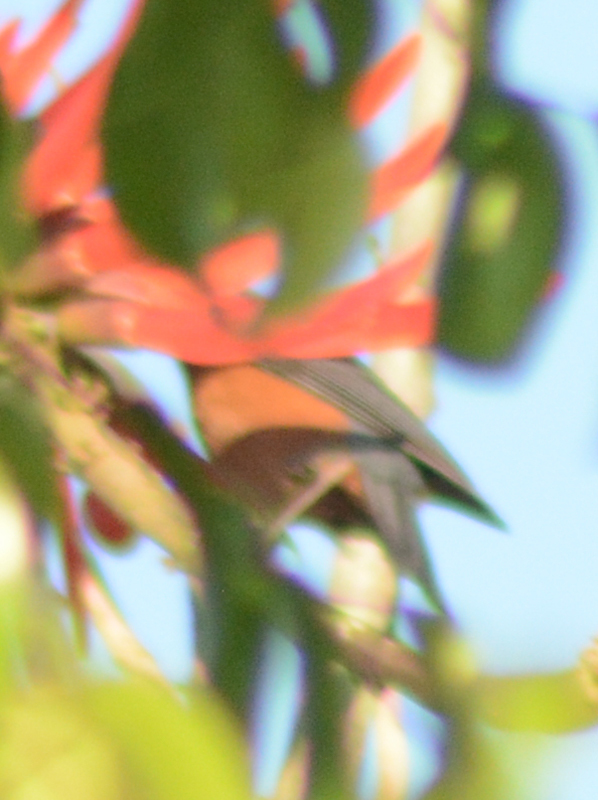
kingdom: Animalia
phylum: Chordata
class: Aves
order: Passeriformes
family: Thraupidae
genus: Diglossa
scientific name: Diglossa baritula
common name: Cinnamon-bellied flowerpiercer
